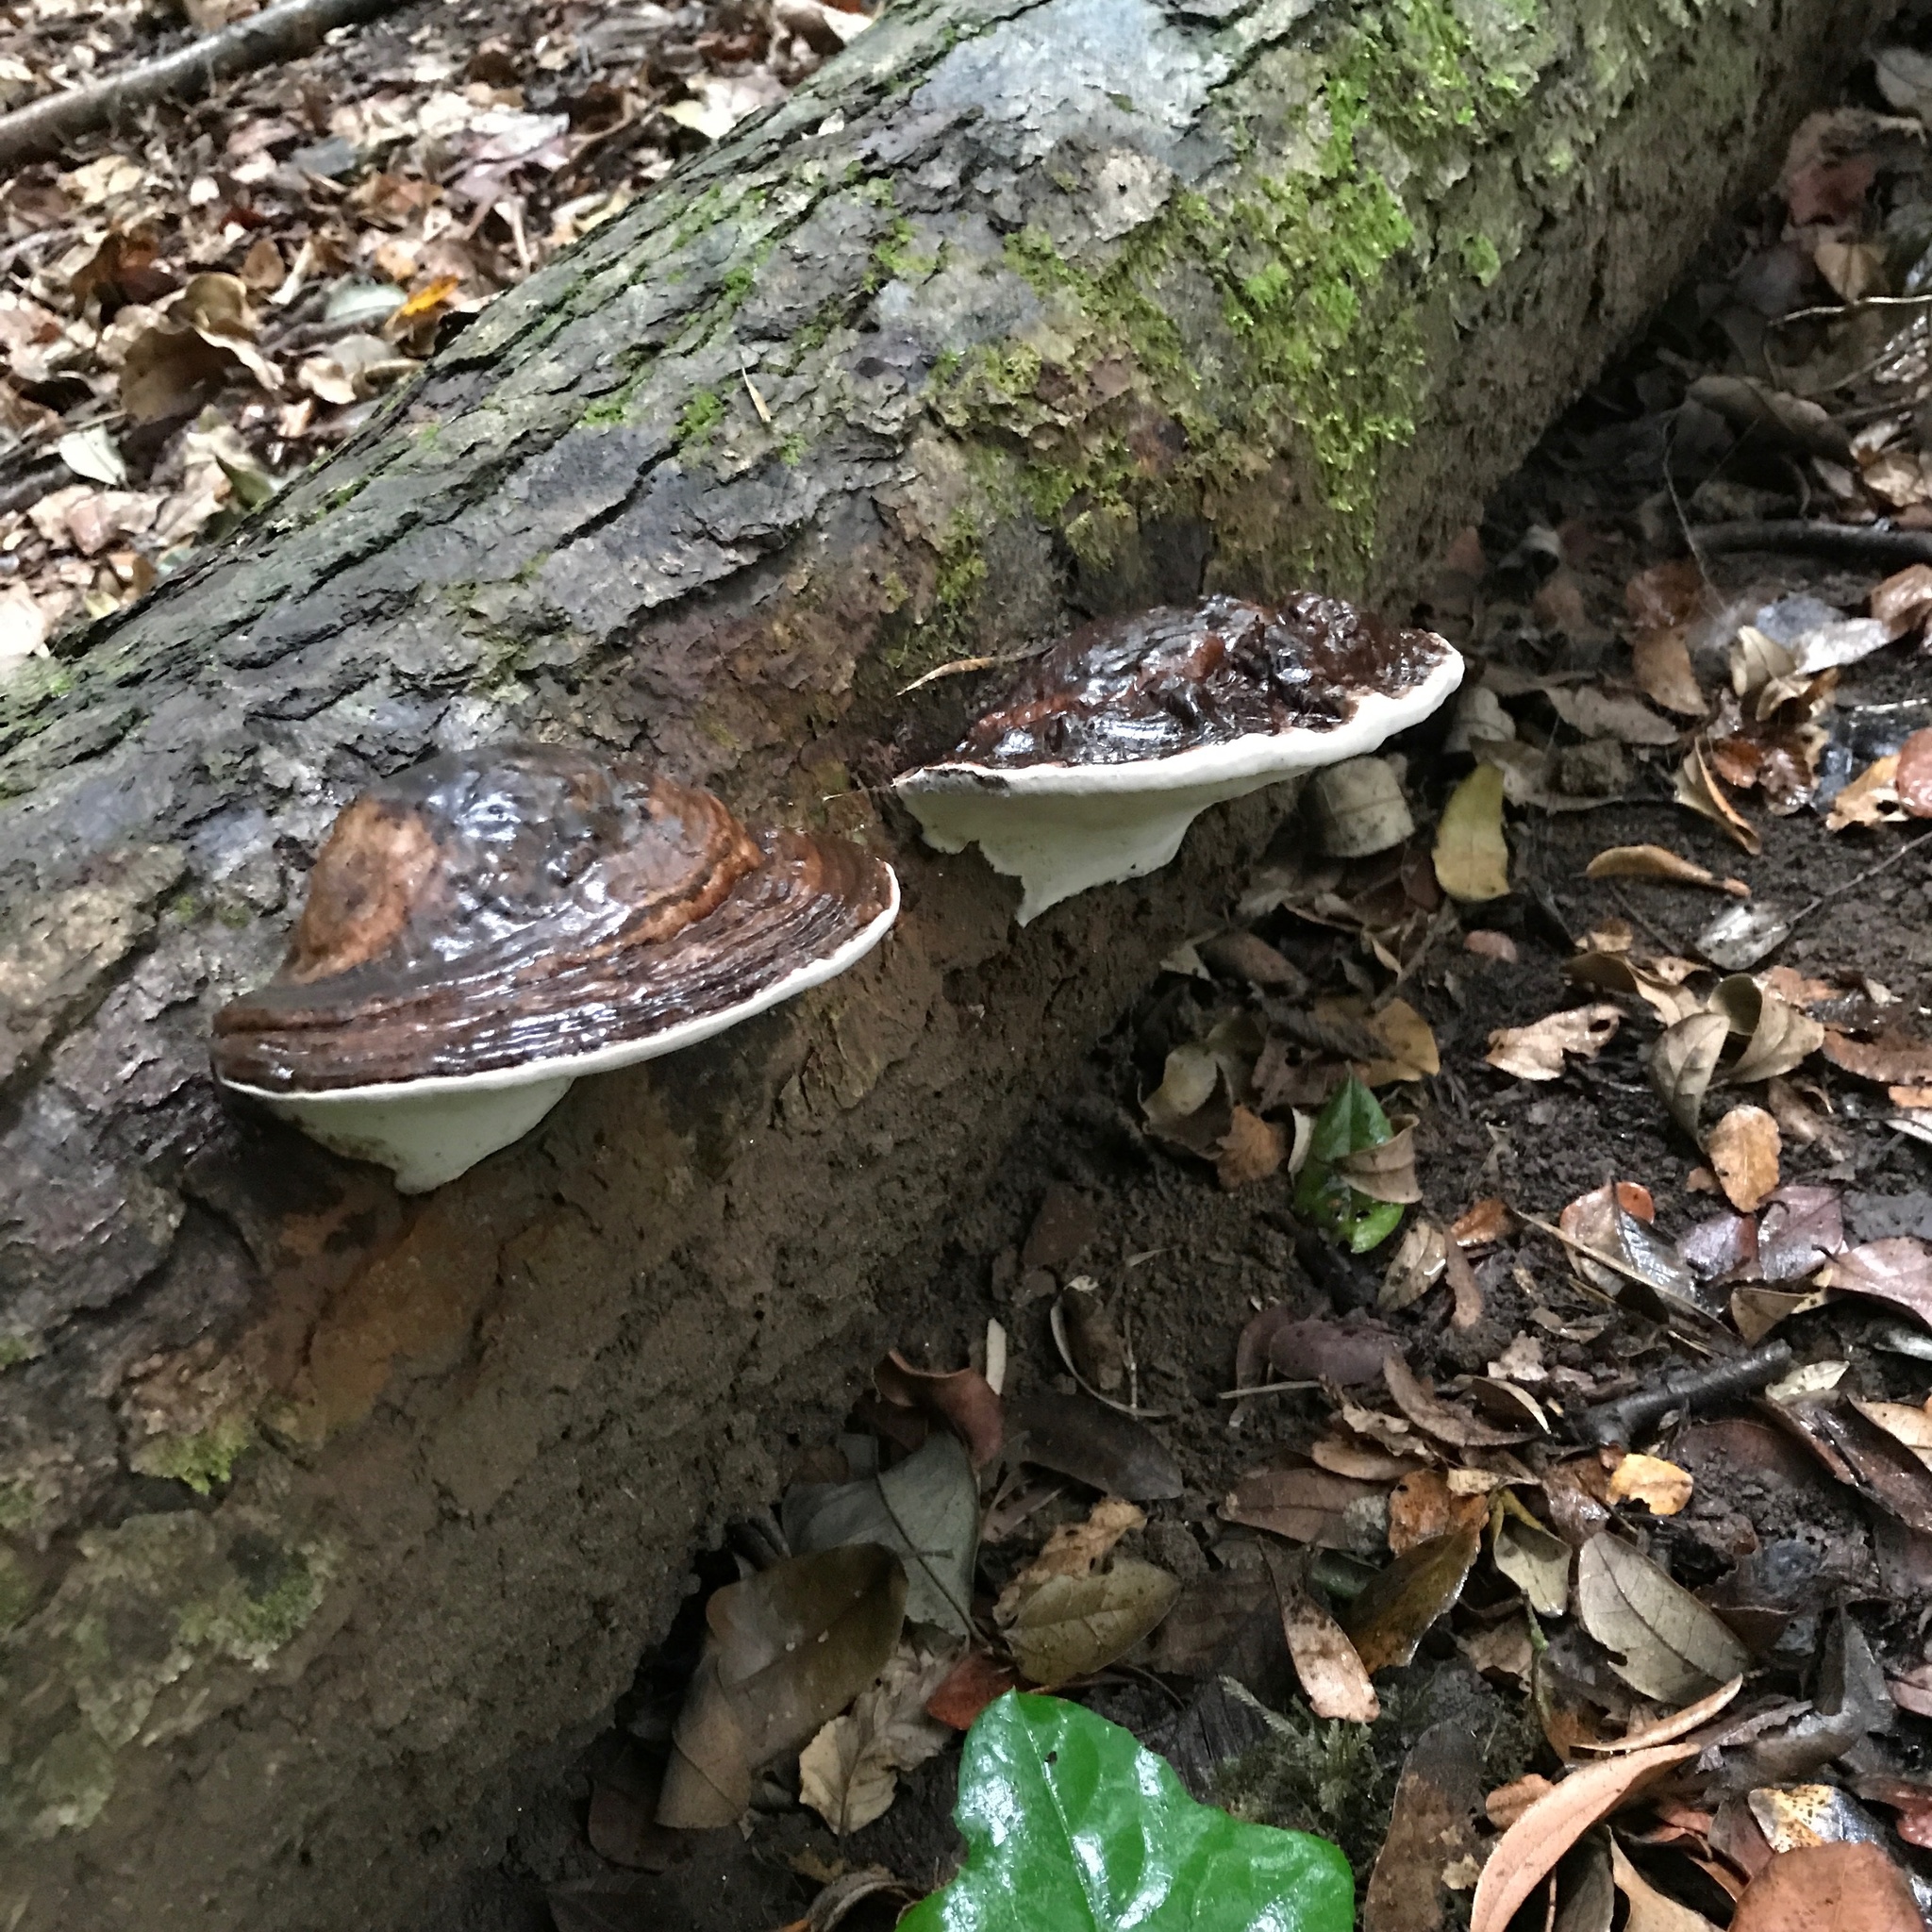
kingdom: Fungi
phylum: Basidiomycota
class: Agaricomycetes
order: Polyporales
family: Polyporaceae
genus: Ganoderma
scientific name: Ganoderma australe
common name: Southern bracket
